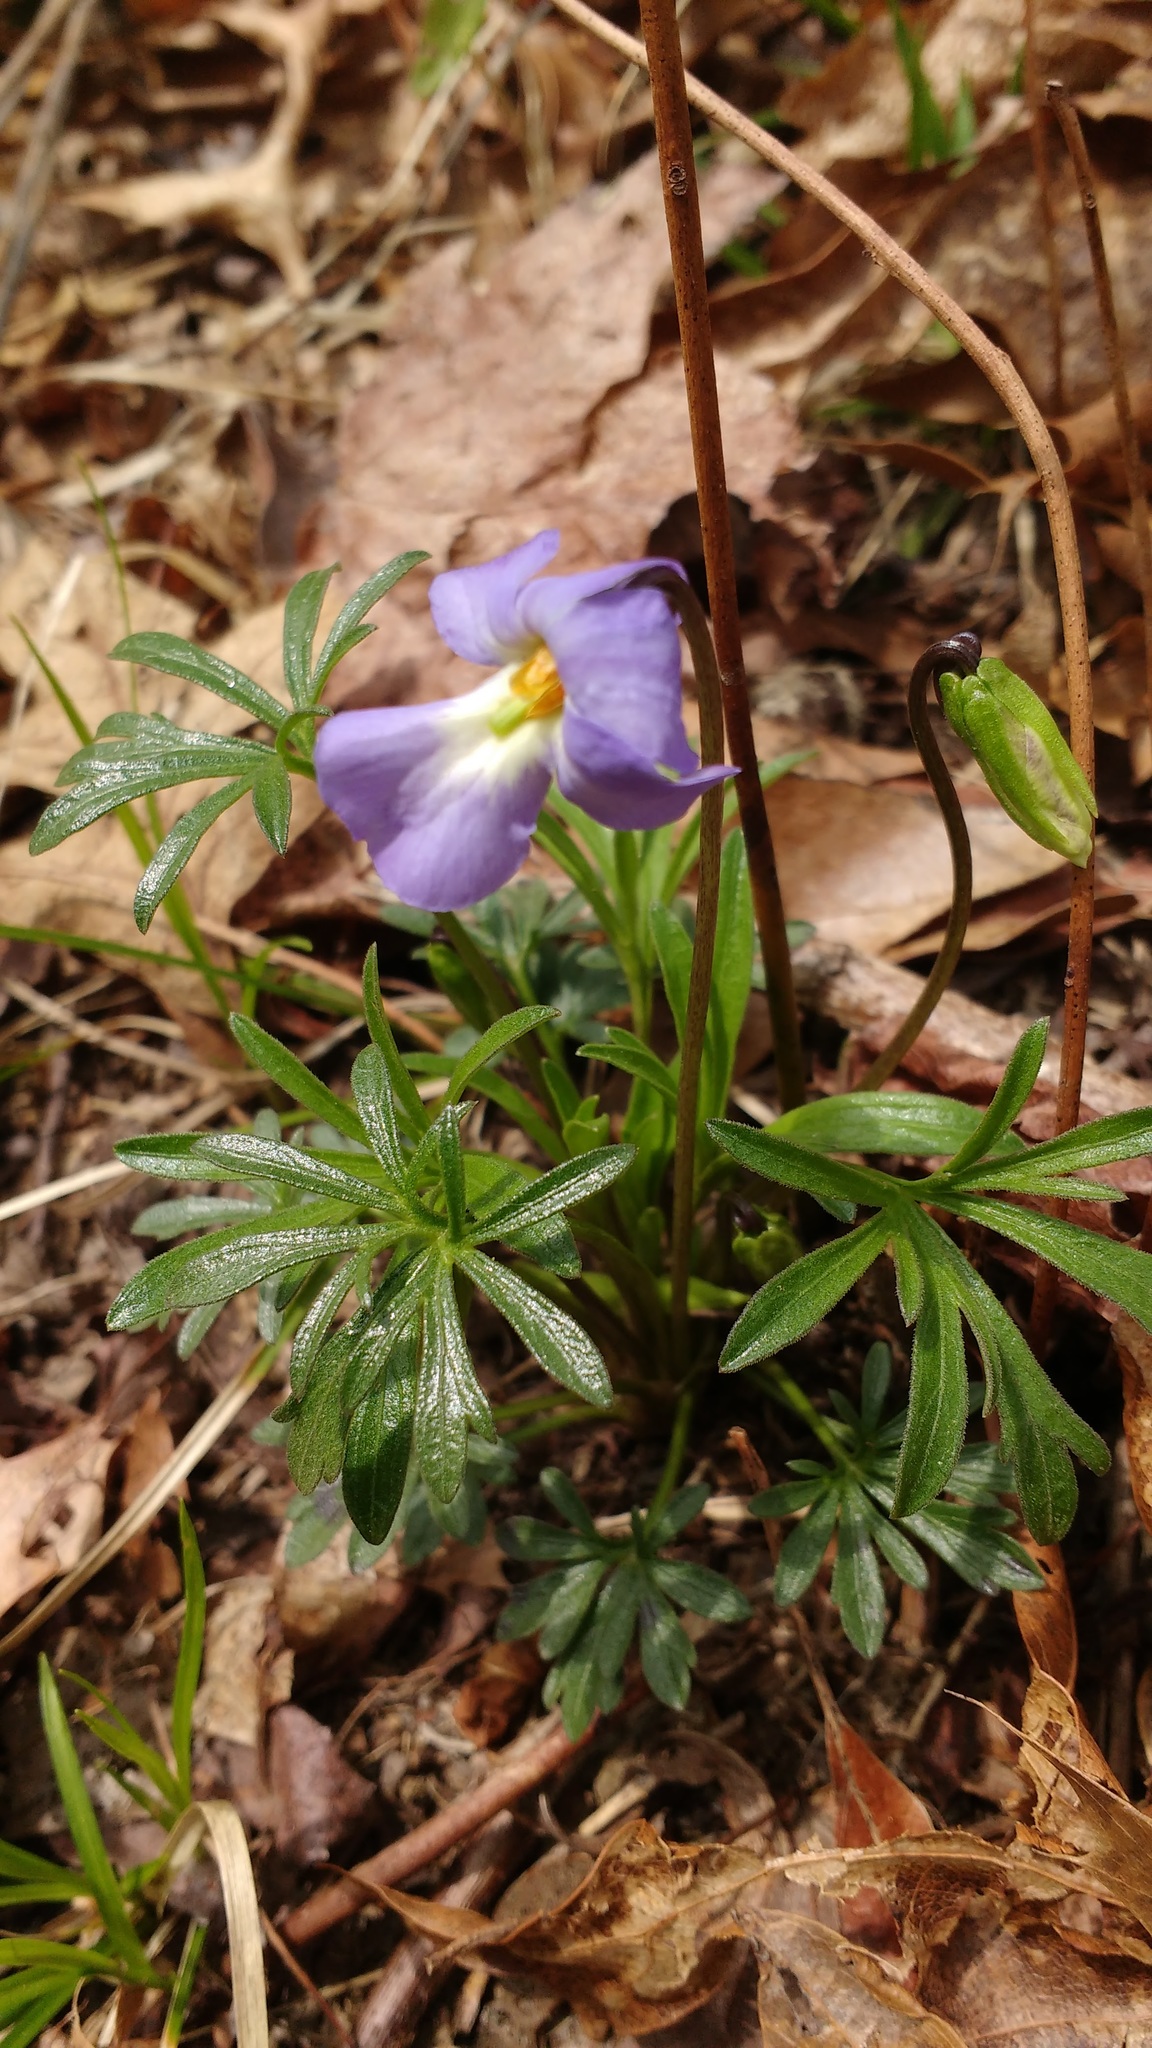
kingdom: Plantae
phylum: Tracheophyta
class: Magnoliopsida
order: Malpighiales
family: Violaceae
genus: Viola
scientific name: Viola pedata
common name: Pansy violet
